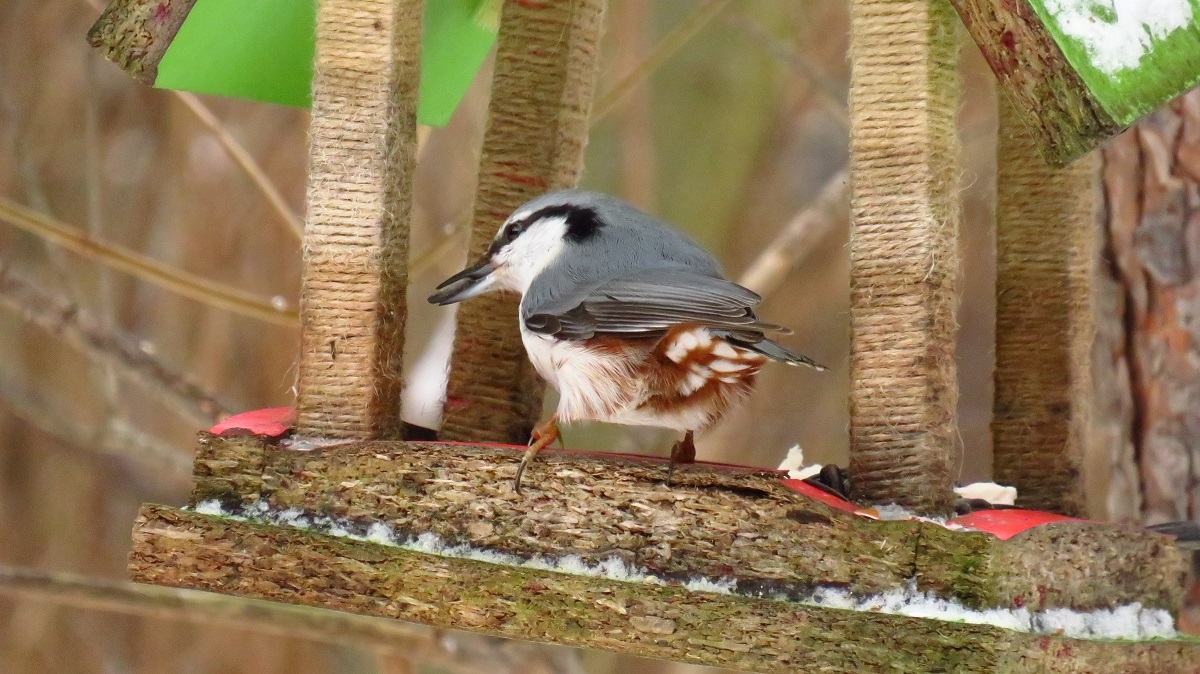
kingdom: Animalia
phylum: Chordata
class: Aves
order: Passeriformes
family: Sittidae
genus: Sitta
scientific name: Sitta europaea
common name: Eurasian nuthatch
